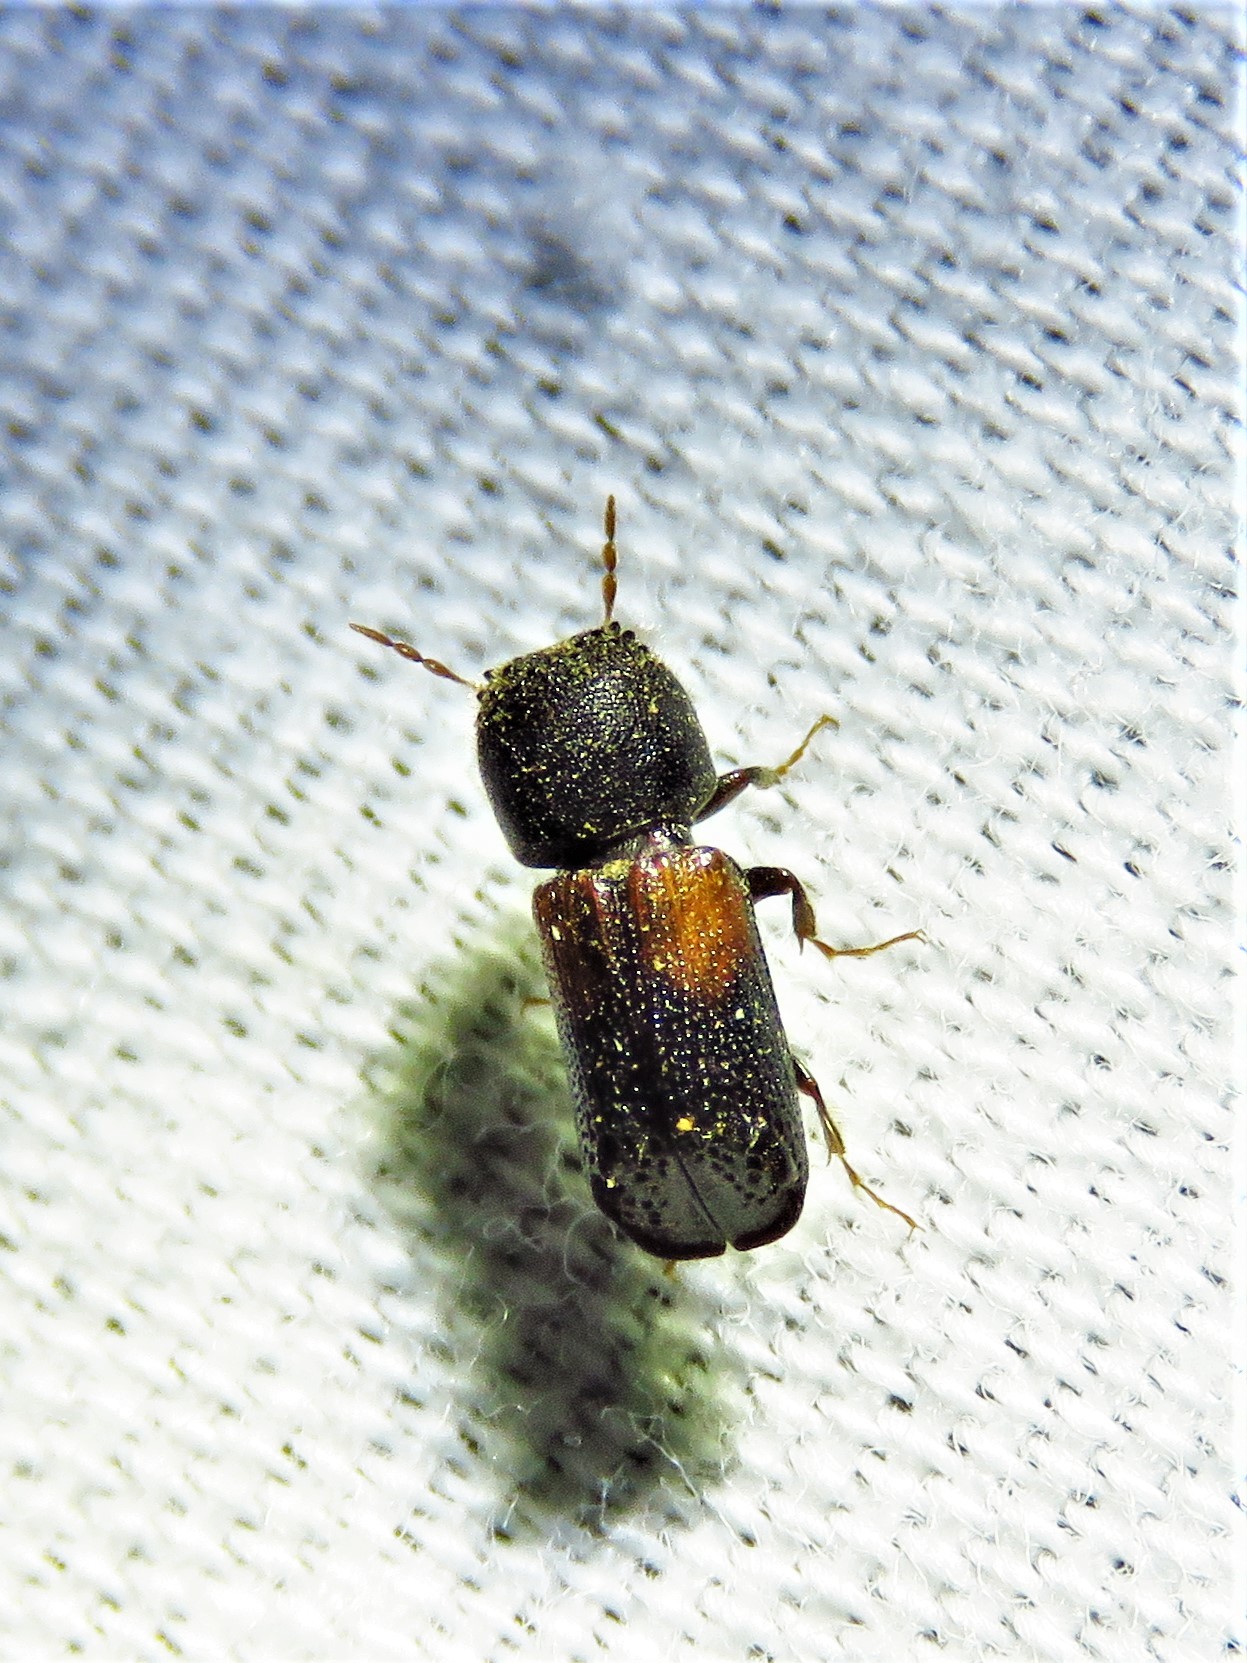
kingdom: Animalia
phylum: Arthropoda
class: Insecta
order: Coleoptera
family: Bostrichidae
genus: Xylobiops
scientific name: Xylobiops basilaris
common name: Red-shouldered bostrichid
